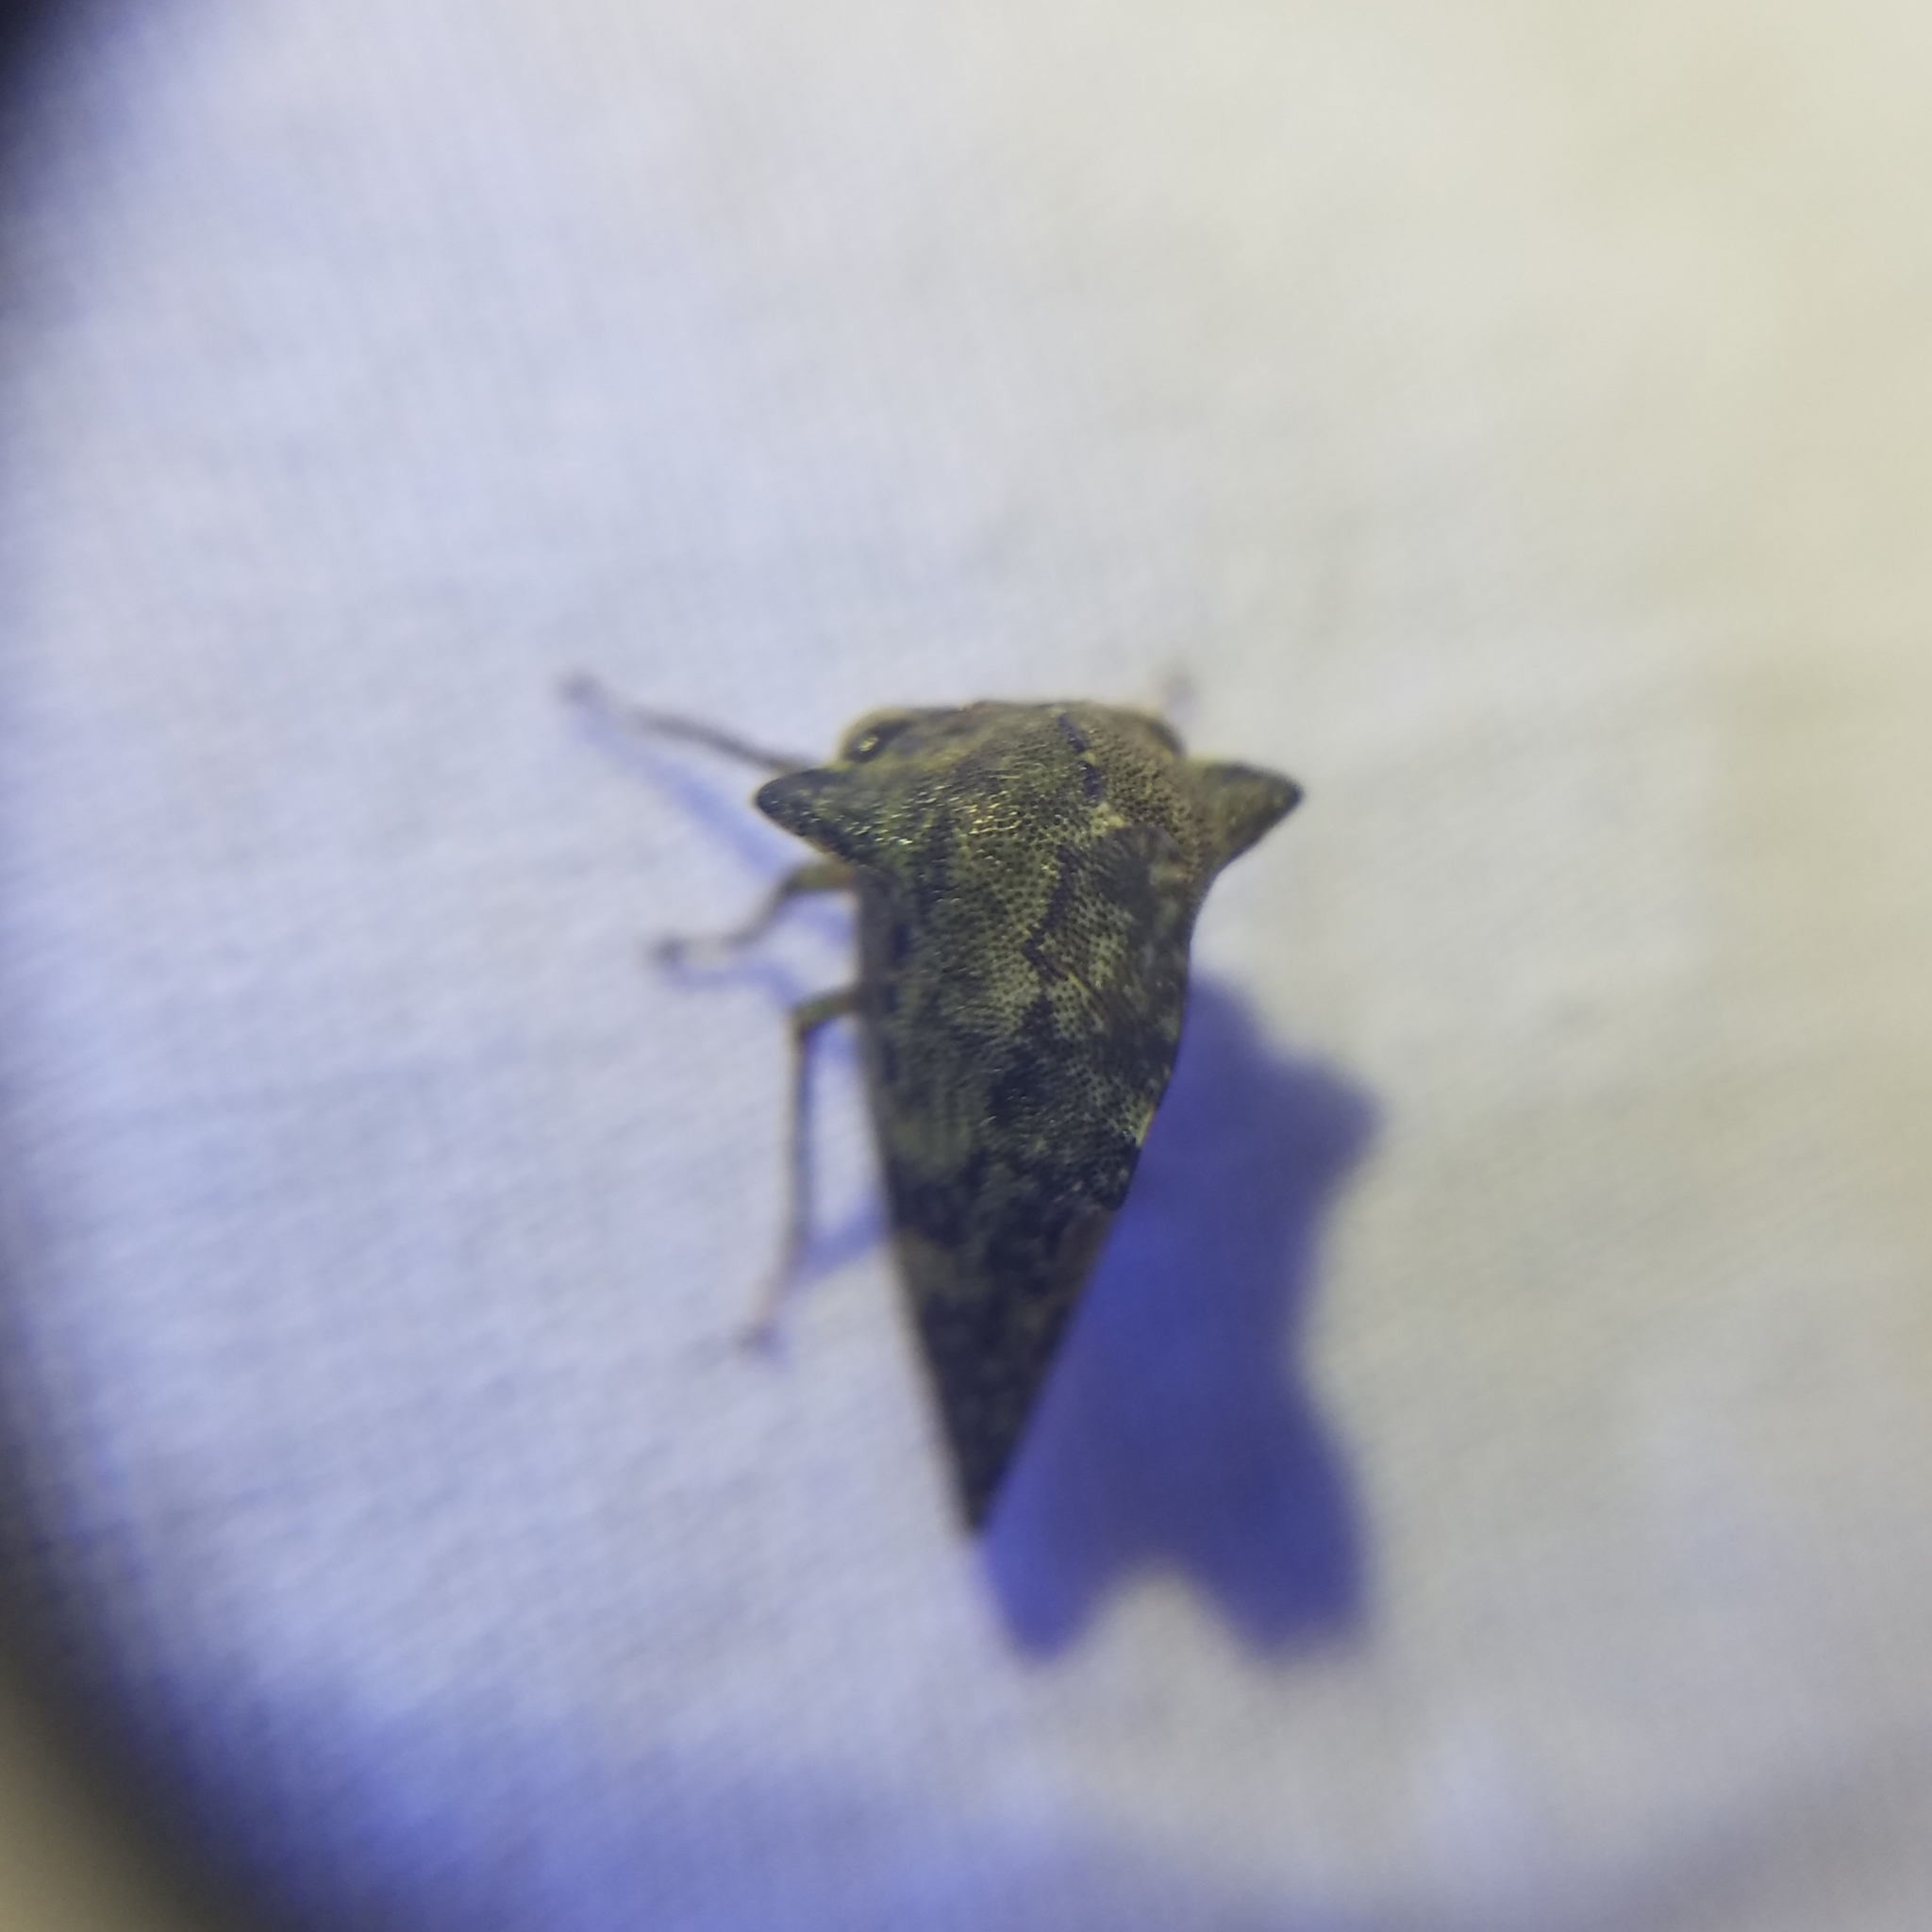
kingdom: Animalia
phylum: Arthropoda
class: Insecta
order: Hemiptera
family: Membracidae
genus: Heliria
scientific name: Heliria cornutula
